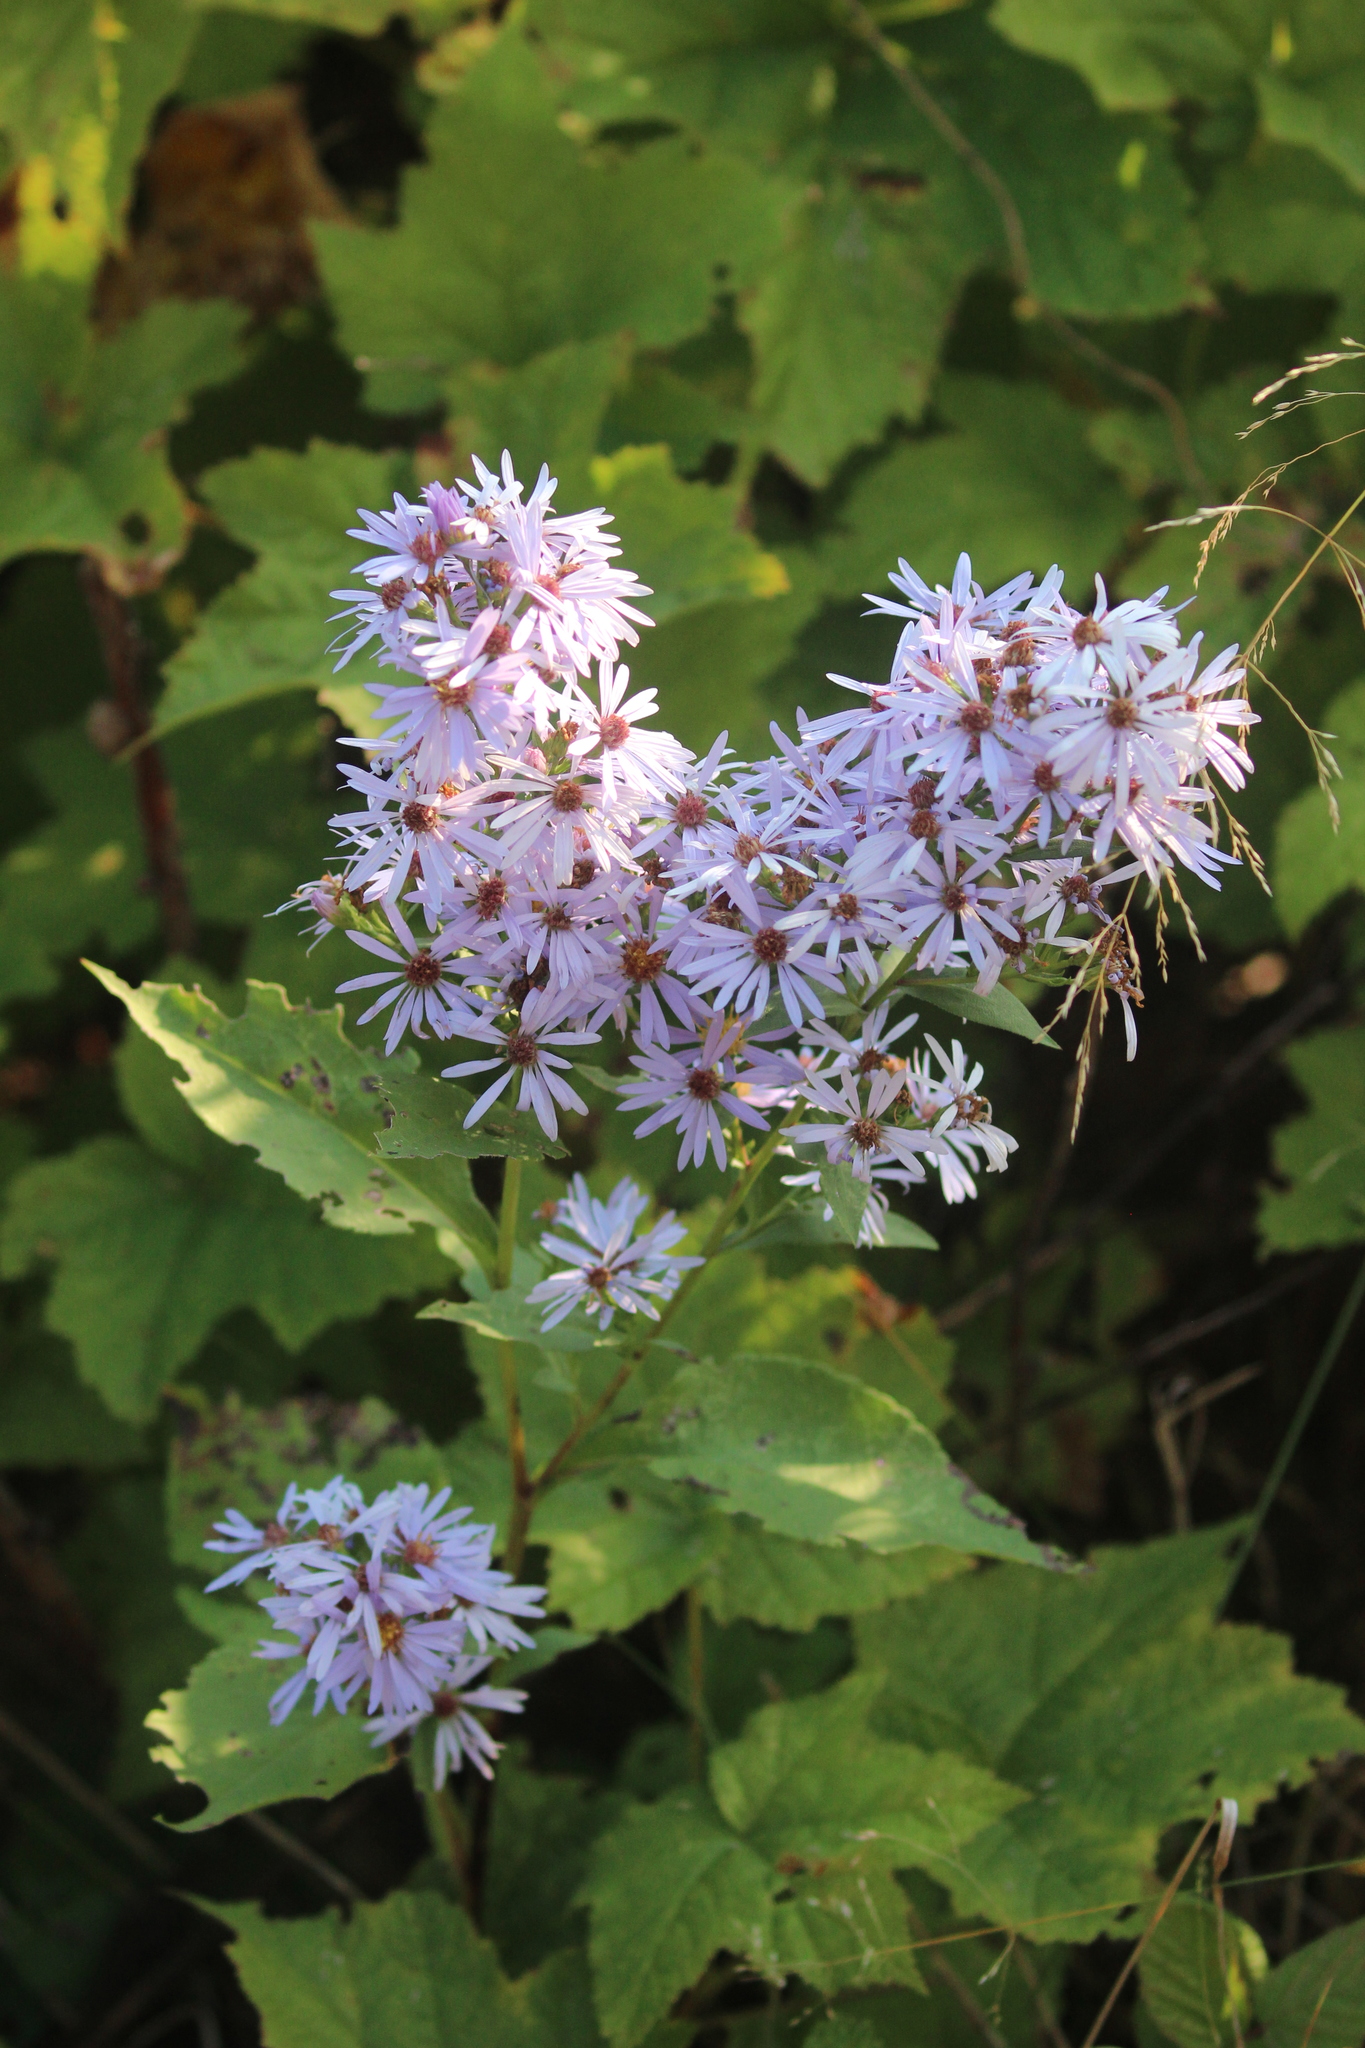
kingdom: Plantae
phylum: Tracheophyta
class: Magnoliopsida
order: Asterales
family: Asteraceae
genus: Symphyotrichum
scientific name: Symphyotrichum ciliolatum
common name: Fringed blue aster
